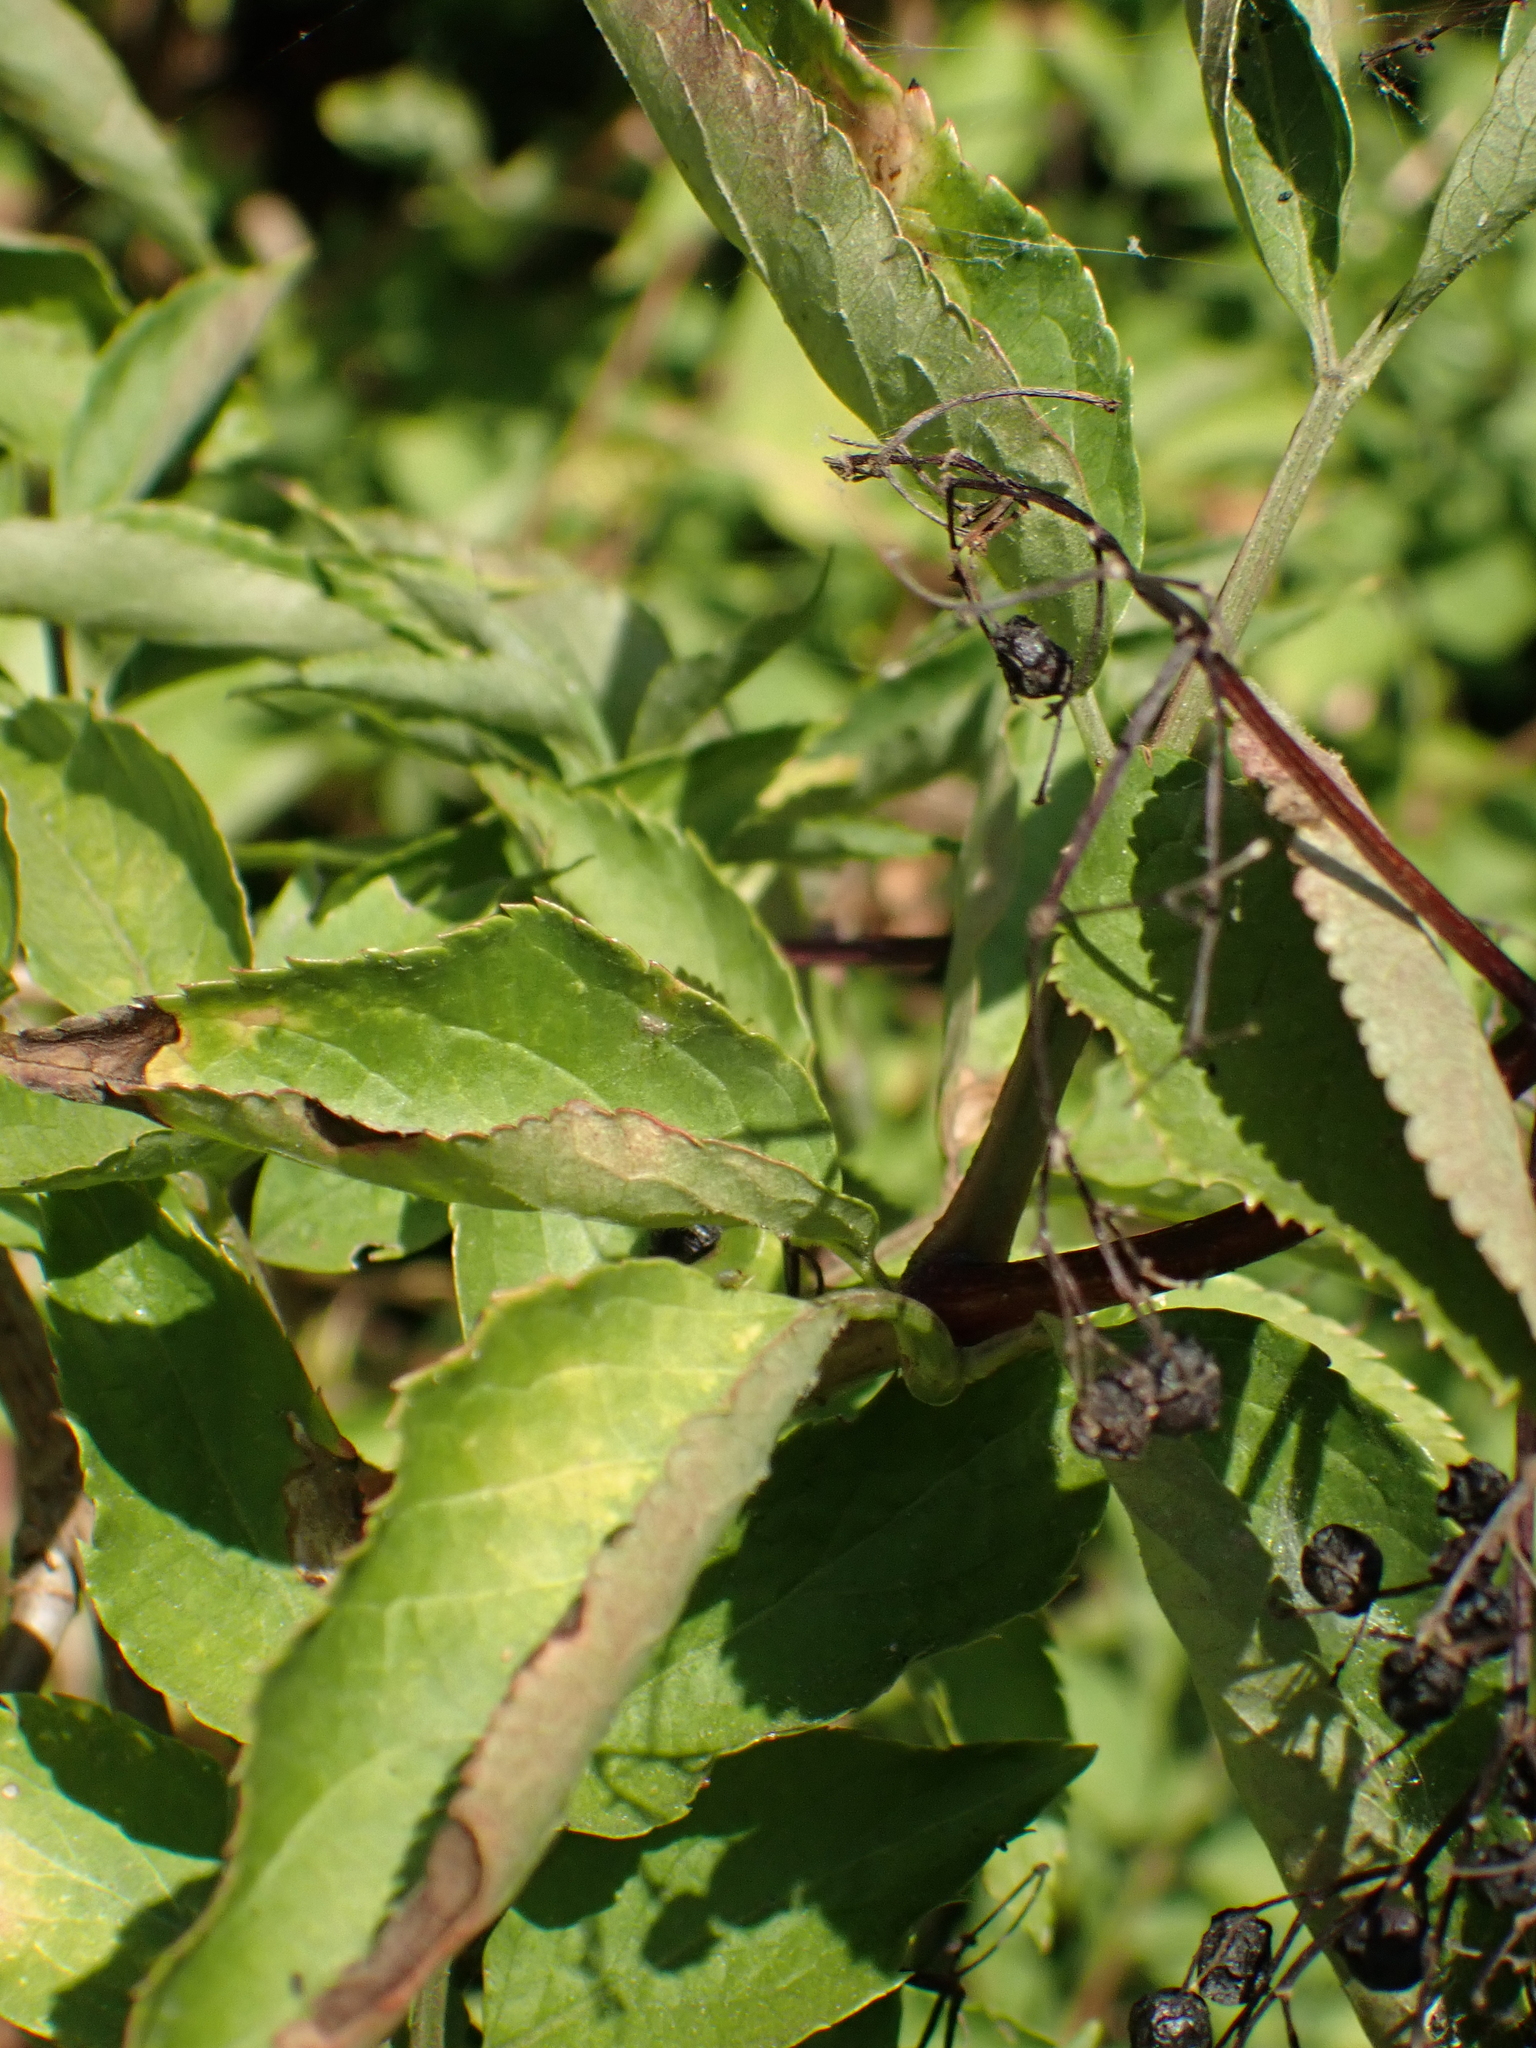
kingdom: Plantae
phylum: Tracheophyta
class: Magnoliopsida
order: Dipsacales
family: Viburnaceae
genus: Sambucus
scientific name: Sambucus nigra
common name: Elder
